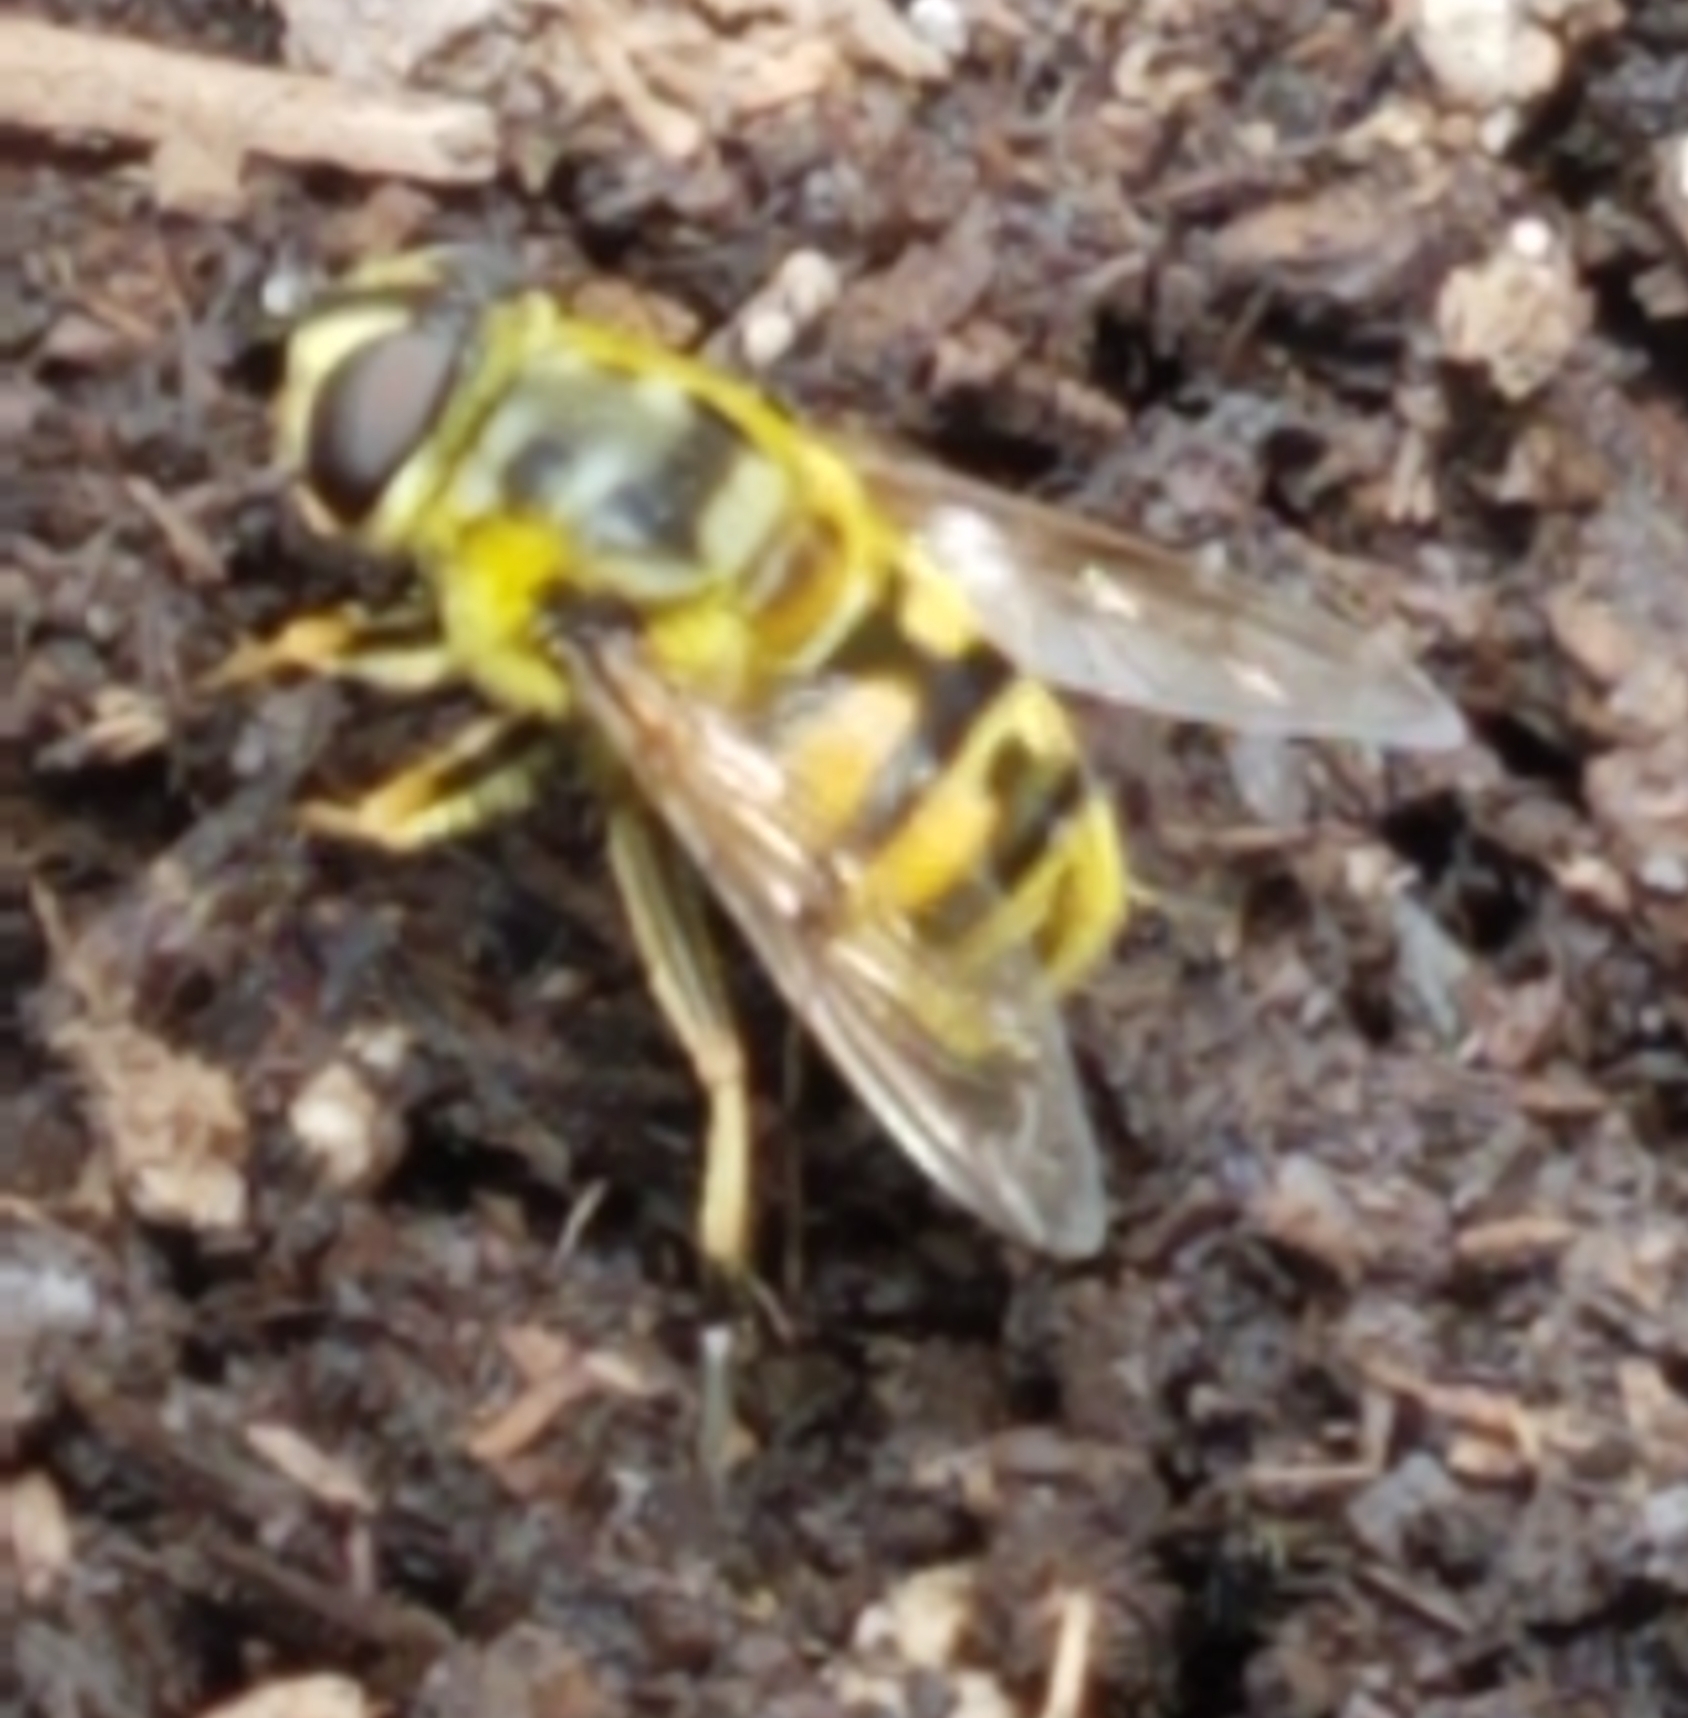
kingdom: Animalia
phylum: Arthropoda
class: Insecta
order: Diptera
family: Syrphidae
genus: Myathropa
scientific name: Myathropa florea
